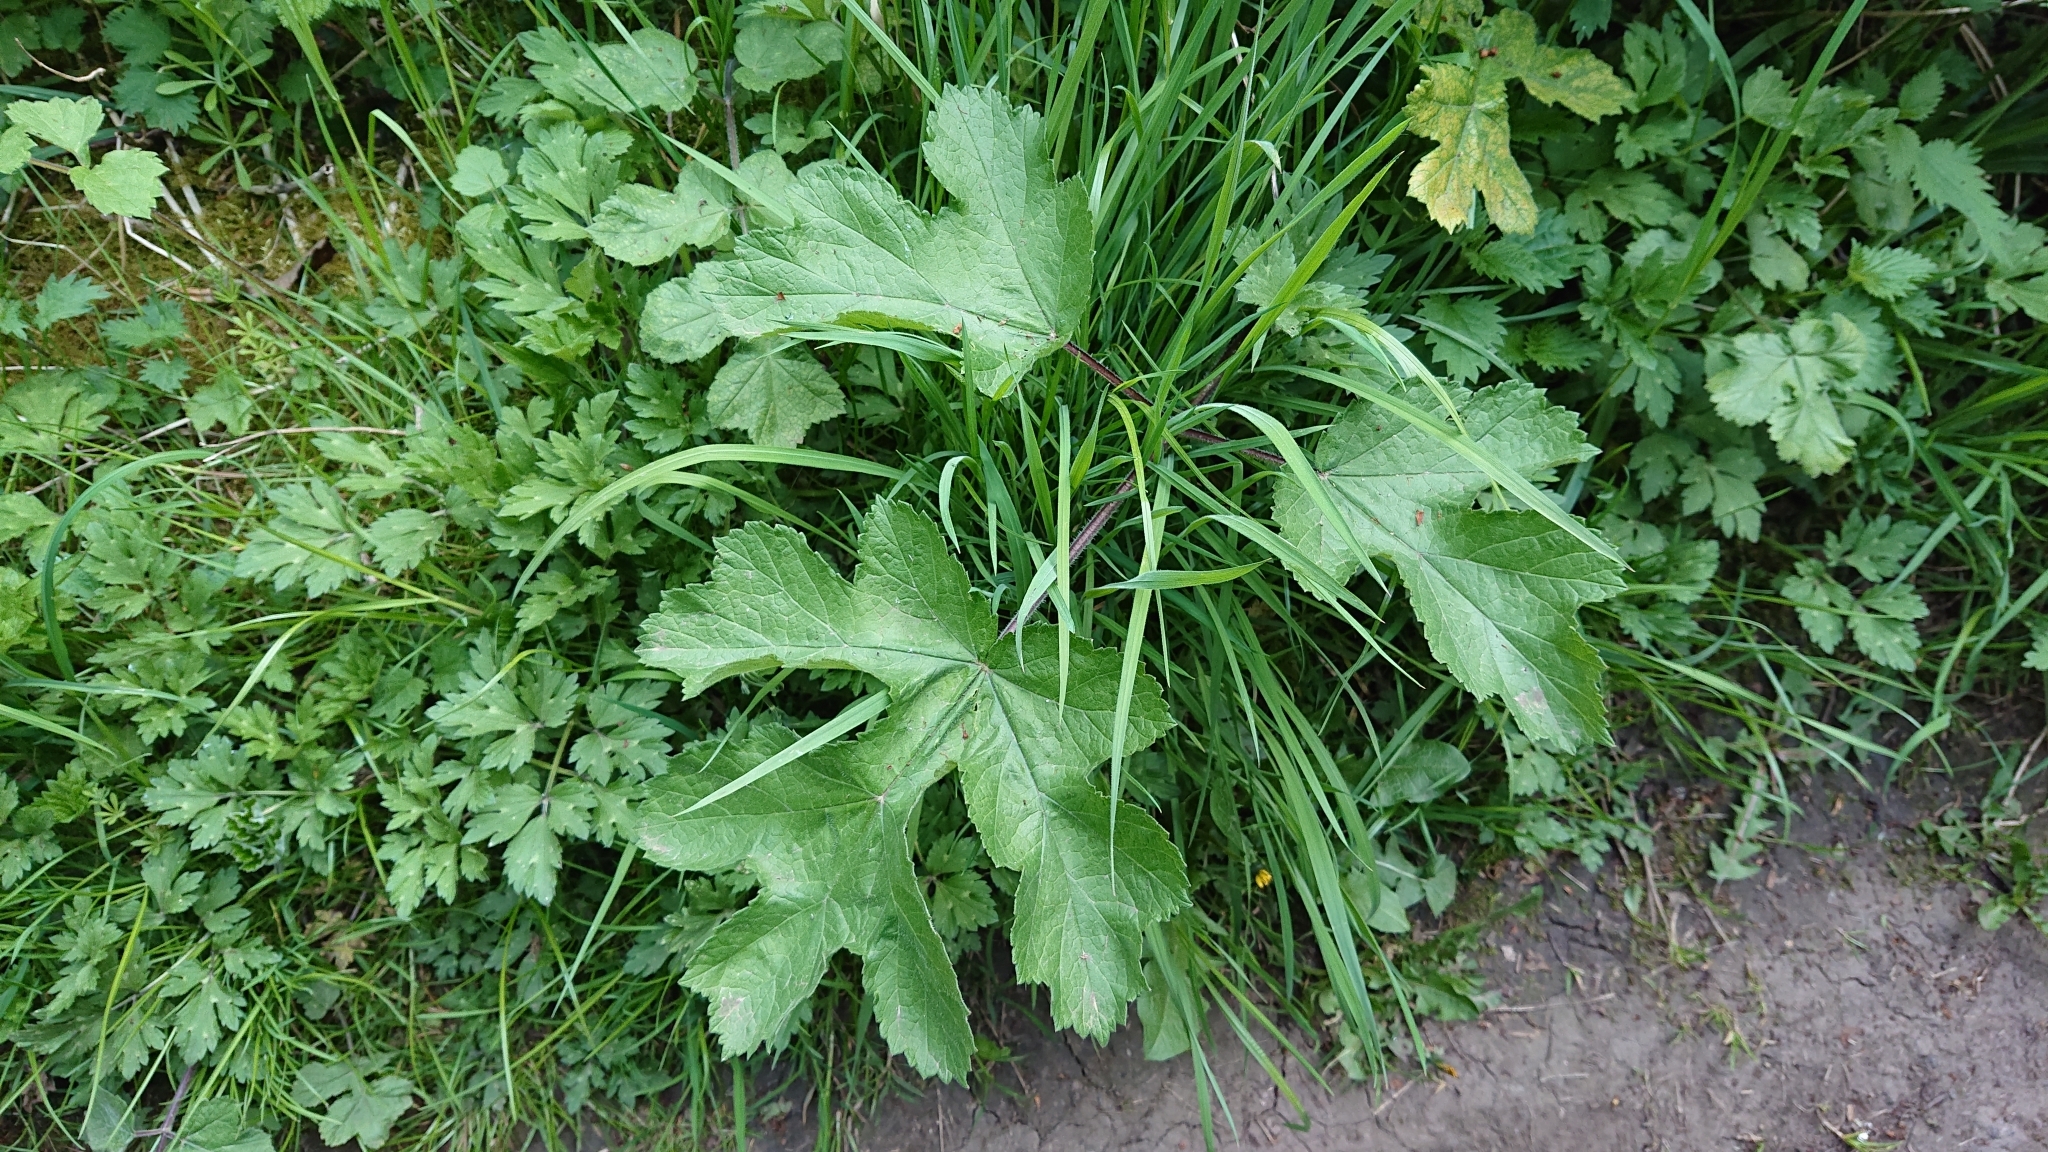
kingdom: Plantae
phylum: Tracheophyta
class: Magnoliopsida
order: Apiales
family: Apiaceae
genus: Heracleum
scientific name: Heracleum sphondylium
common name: Hogweed
